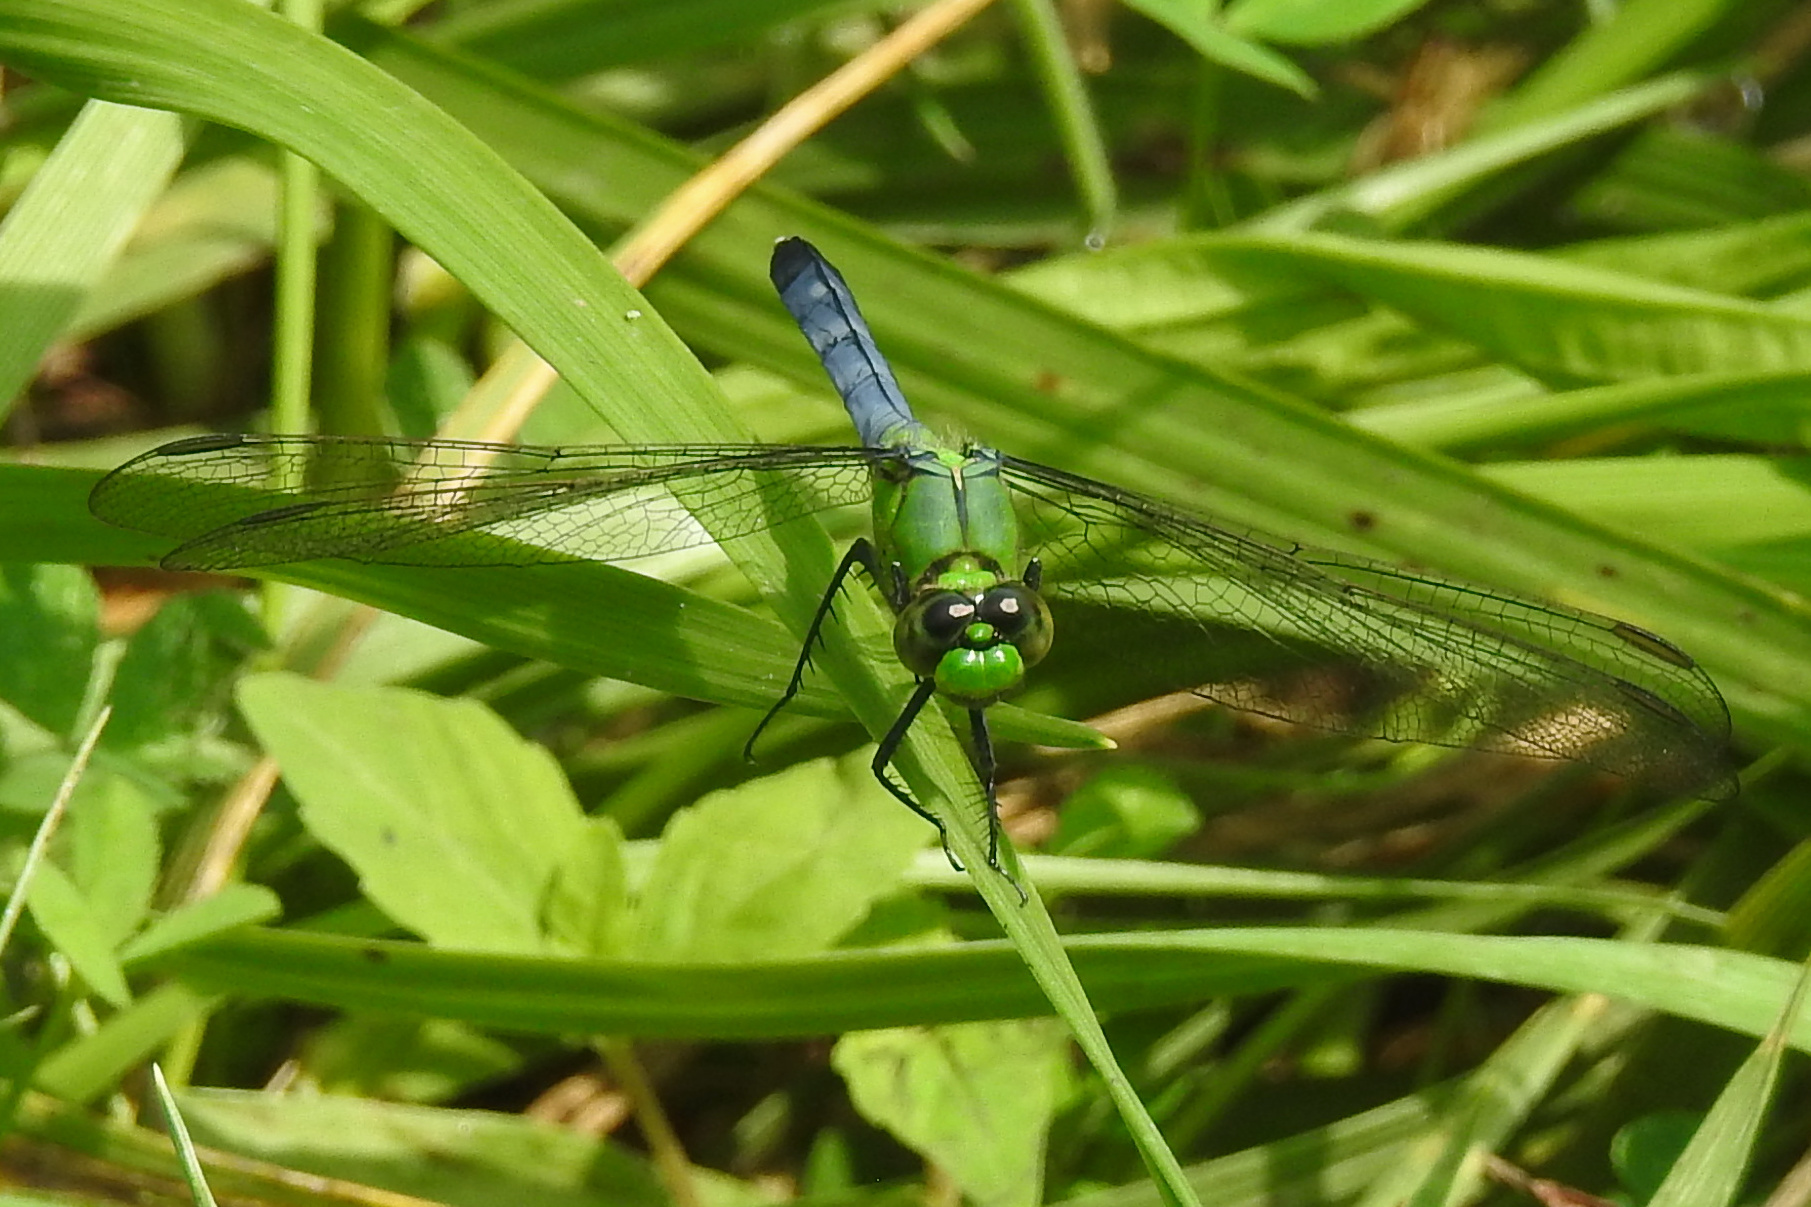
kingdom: Animalia
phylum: Arthropoda
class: Insecta
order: Odonata
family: Libellulidae
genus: Erythemis
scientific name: Erythemis simplicicollis
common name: Eastern pondhawk
